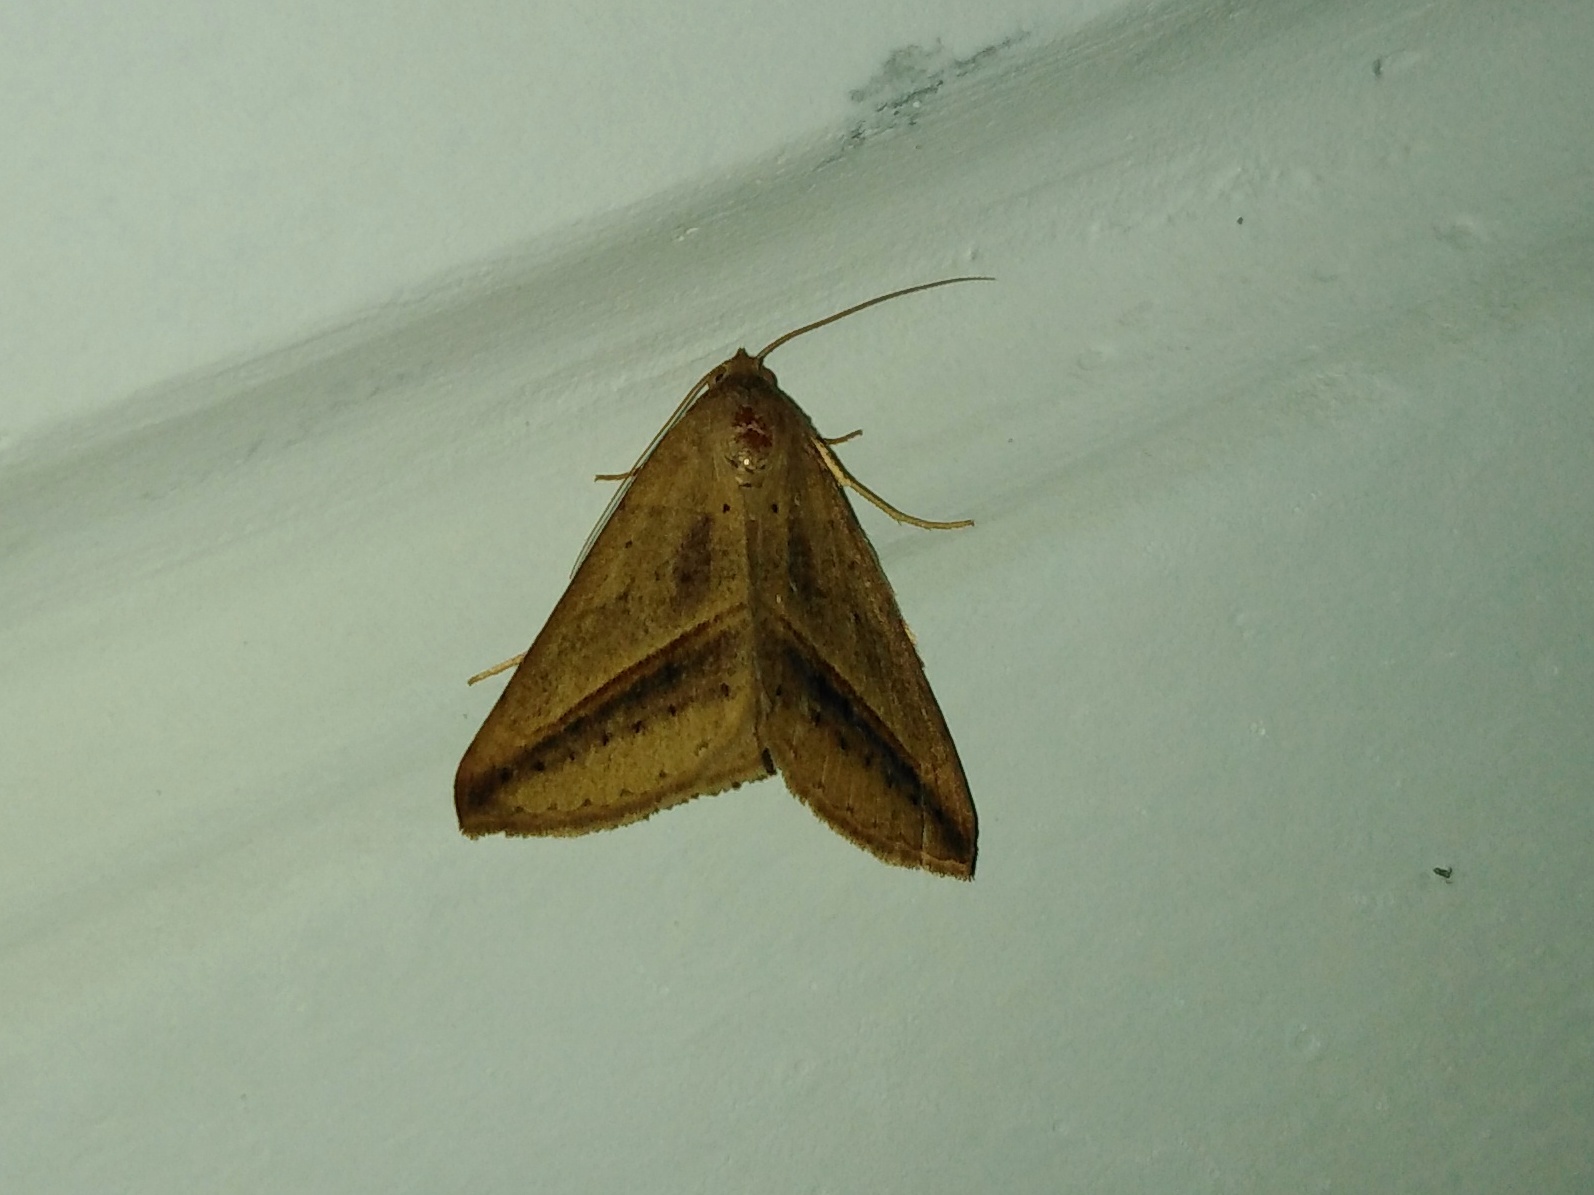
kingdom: Animalia
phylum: Arthropoda
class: Insecta
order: Lepidoptera
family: Erebidae
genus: Mocis
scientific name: Mocis frugalis
